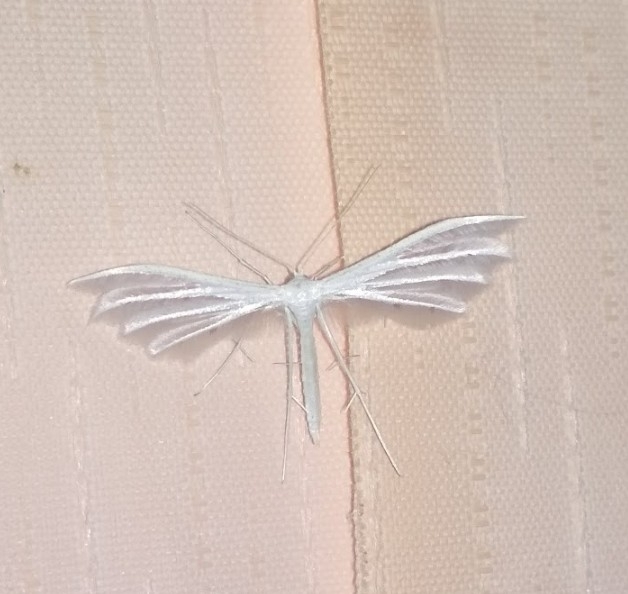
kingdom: Animalia
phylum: Arthropoda
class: Insecta
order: Lepidoptera
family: Pterophoridae
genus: Pterophorus
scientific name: Pterophorus pentadactyla
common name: White plume moth
